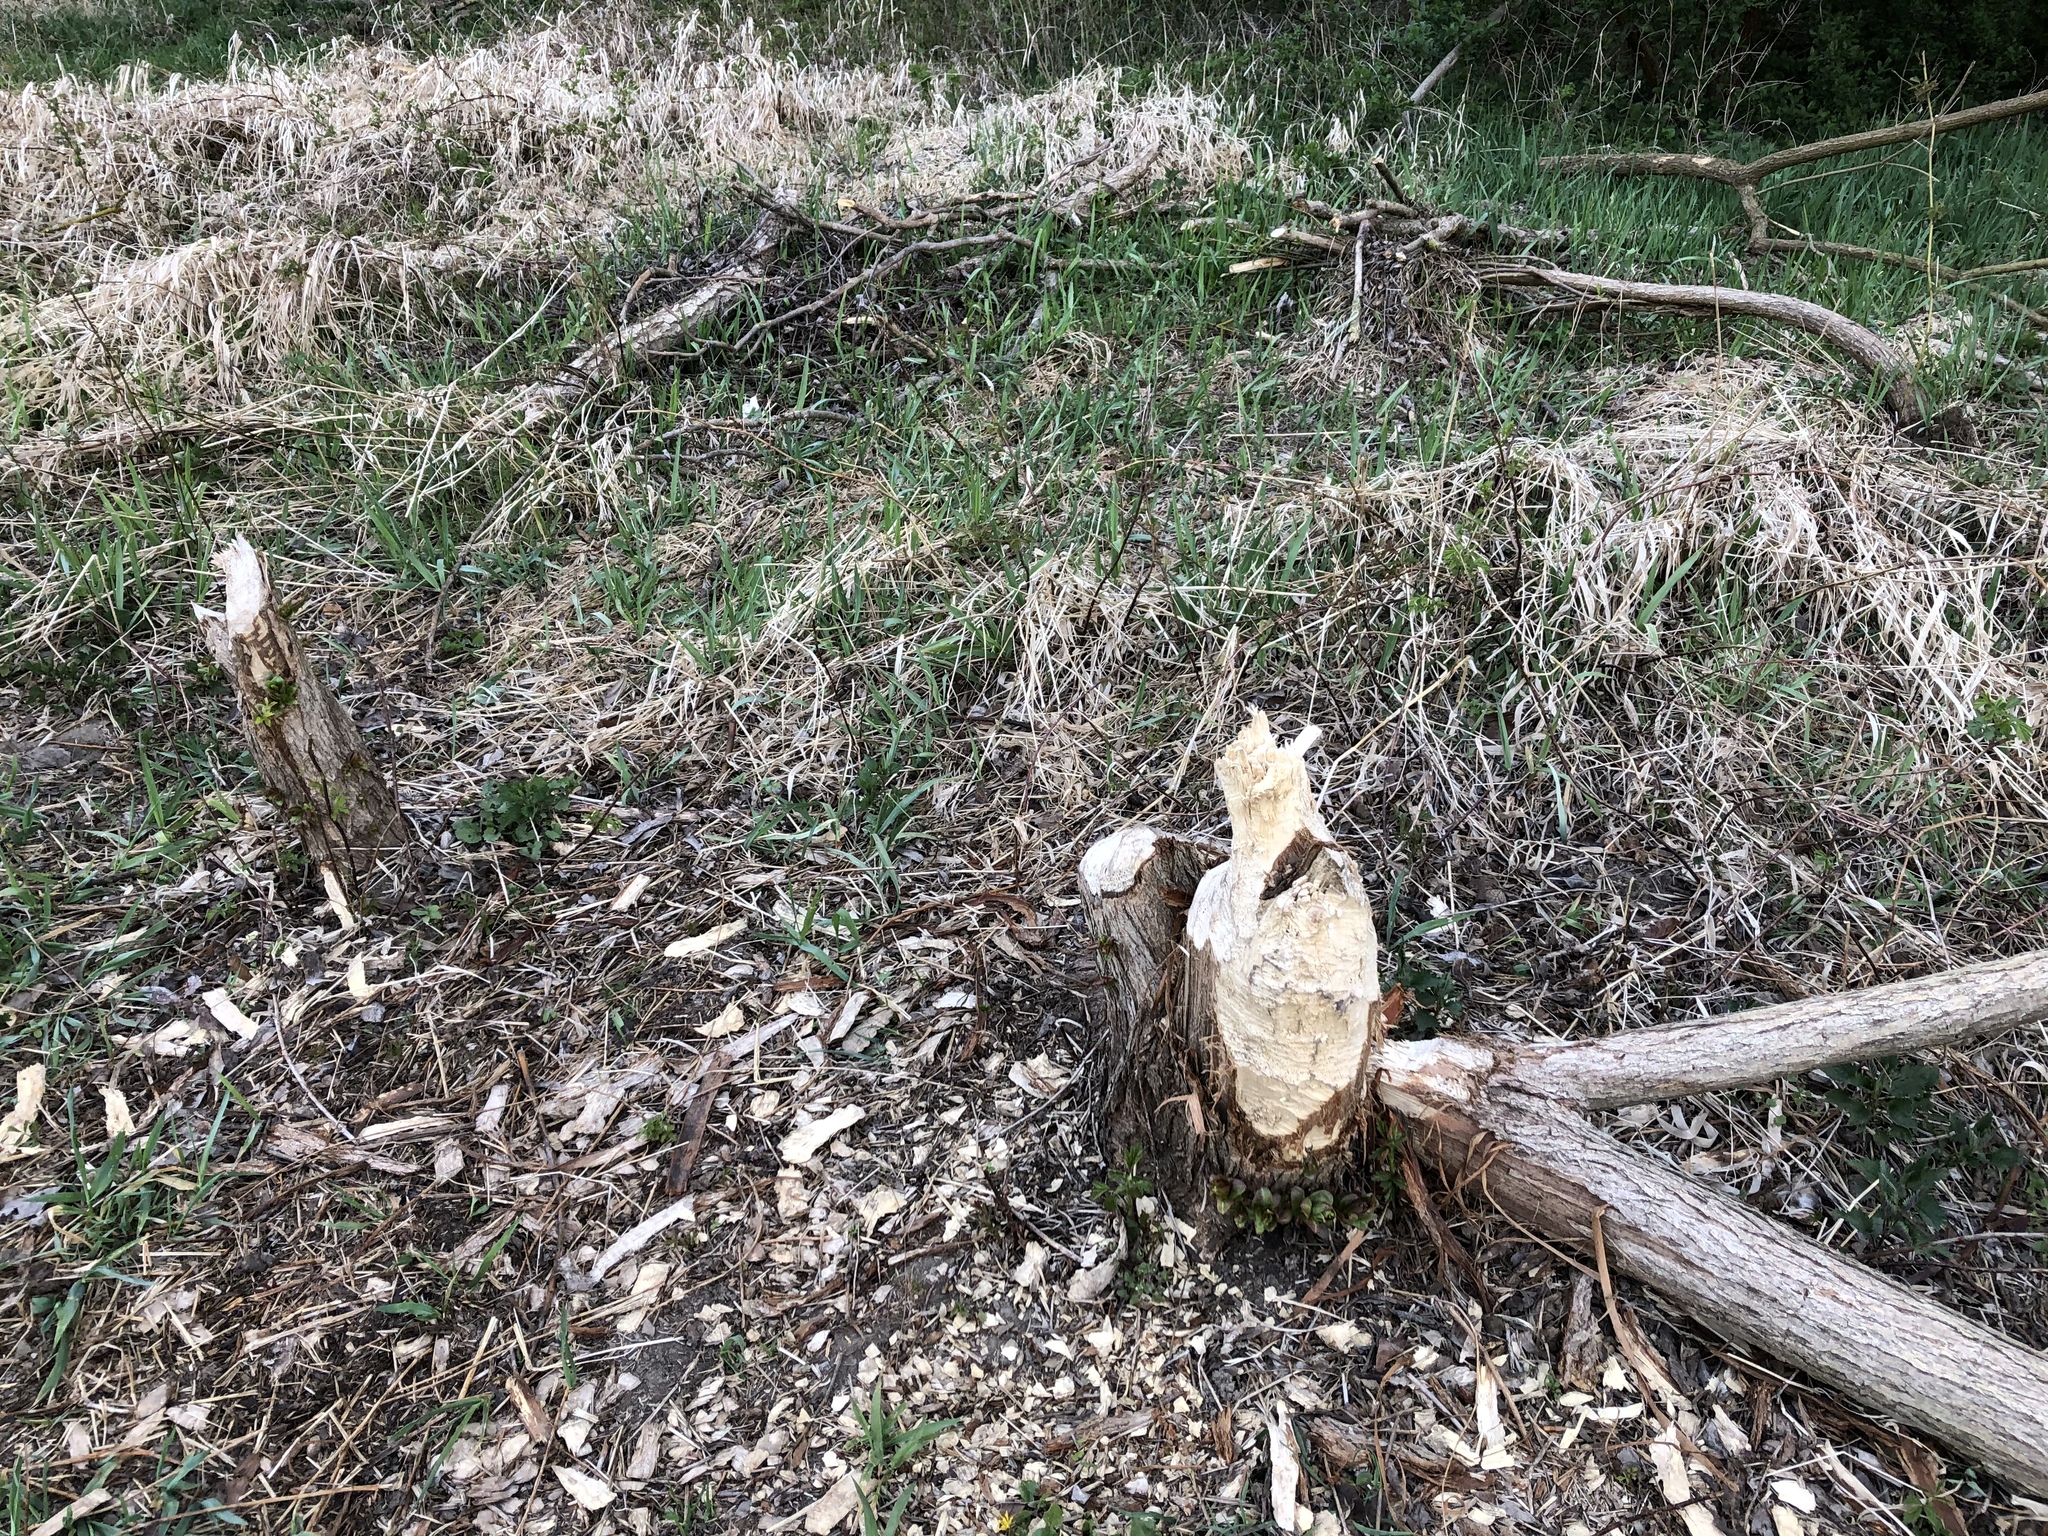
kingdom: Animalia
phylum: Chordata
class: Mammalia
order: Rodentia
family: Castoridae
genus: Castor
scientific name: Castor fiber
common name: Eurasian beaver
